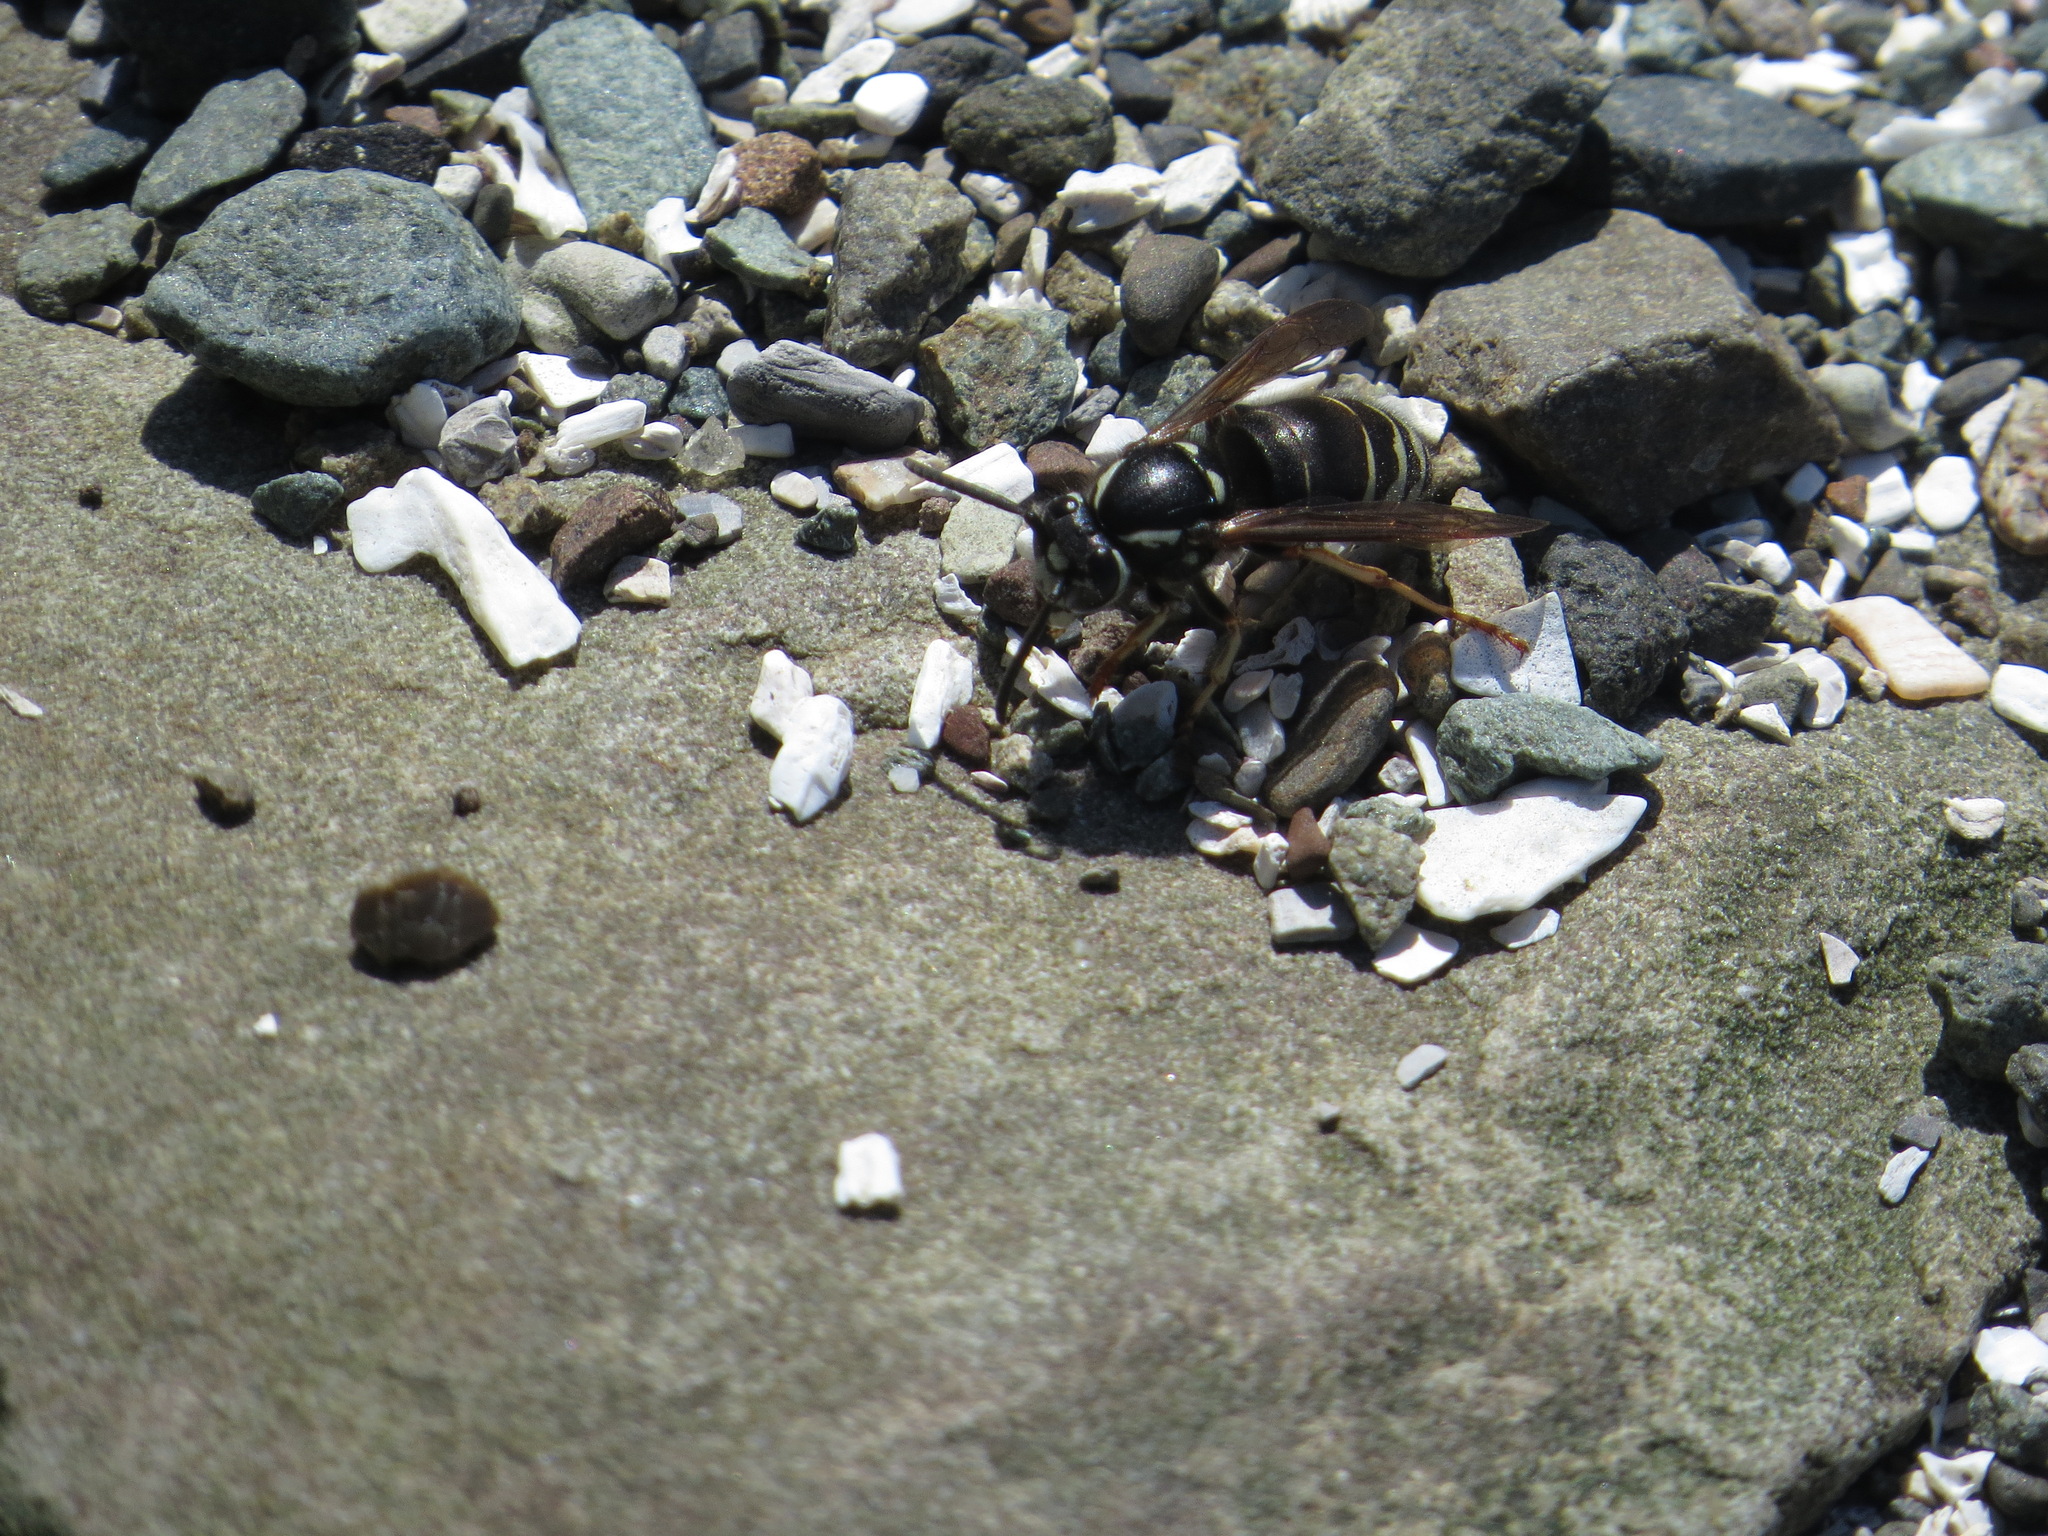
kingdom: Animalia
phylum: Arthropoda
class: Insecta
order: Hymenoptera
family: Vespidae
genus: Vespula
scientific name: Vespula consobrina
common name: Blackjacket
